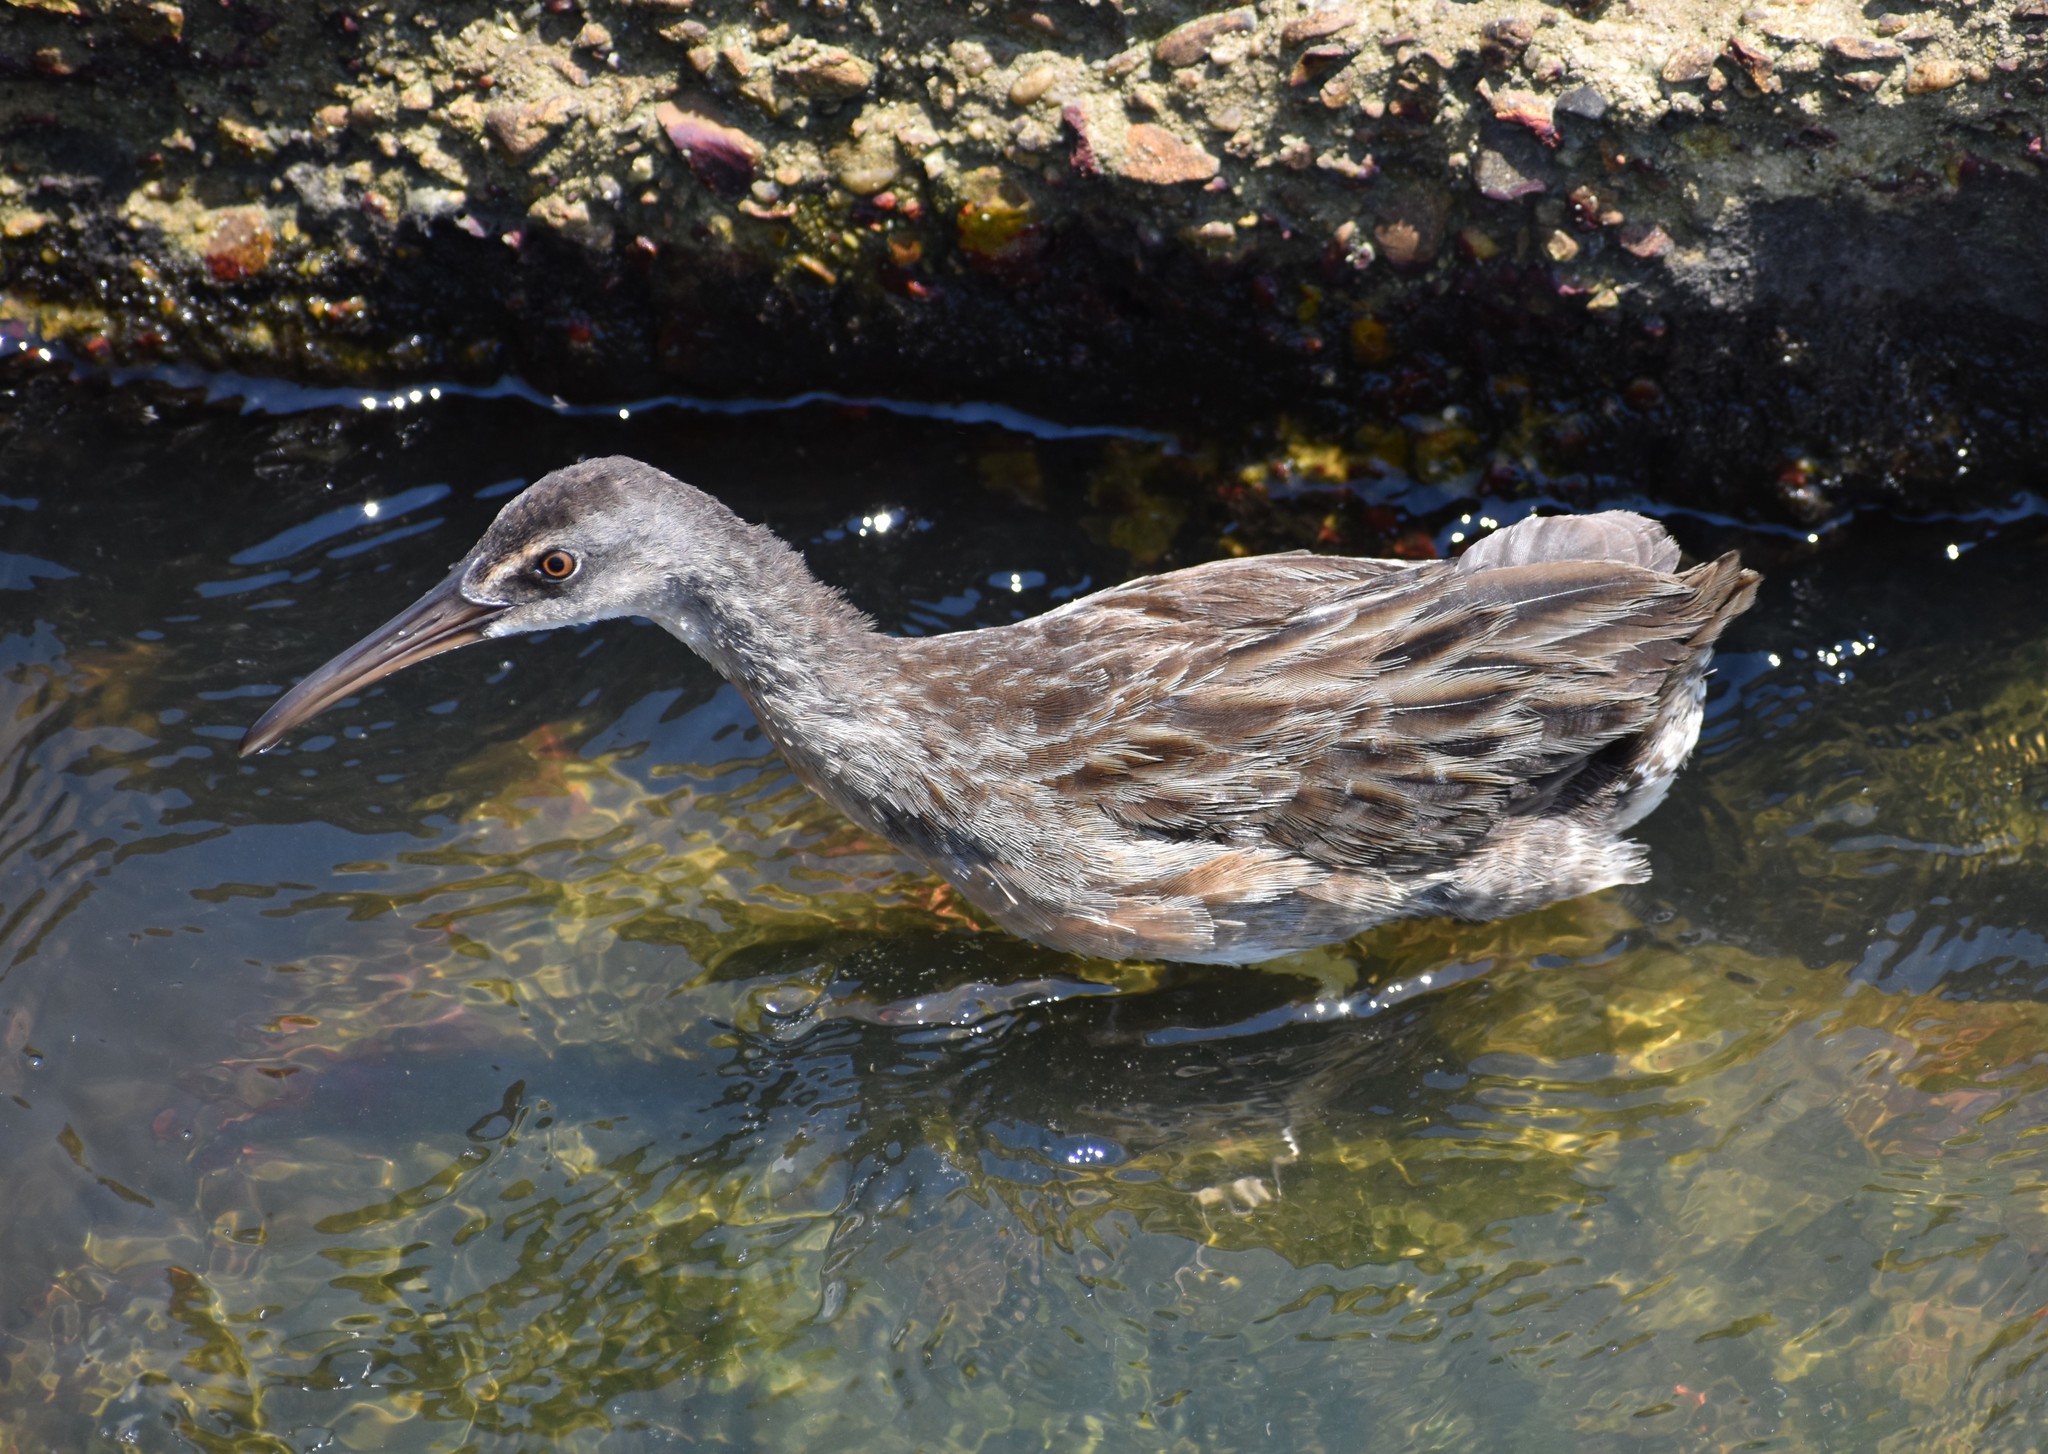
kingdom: Animalia
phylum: Chordata
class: Aves
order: Gruiformes
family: Rallidae
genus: Rallus
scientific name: Rallus crepitans
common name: Clapper rail
